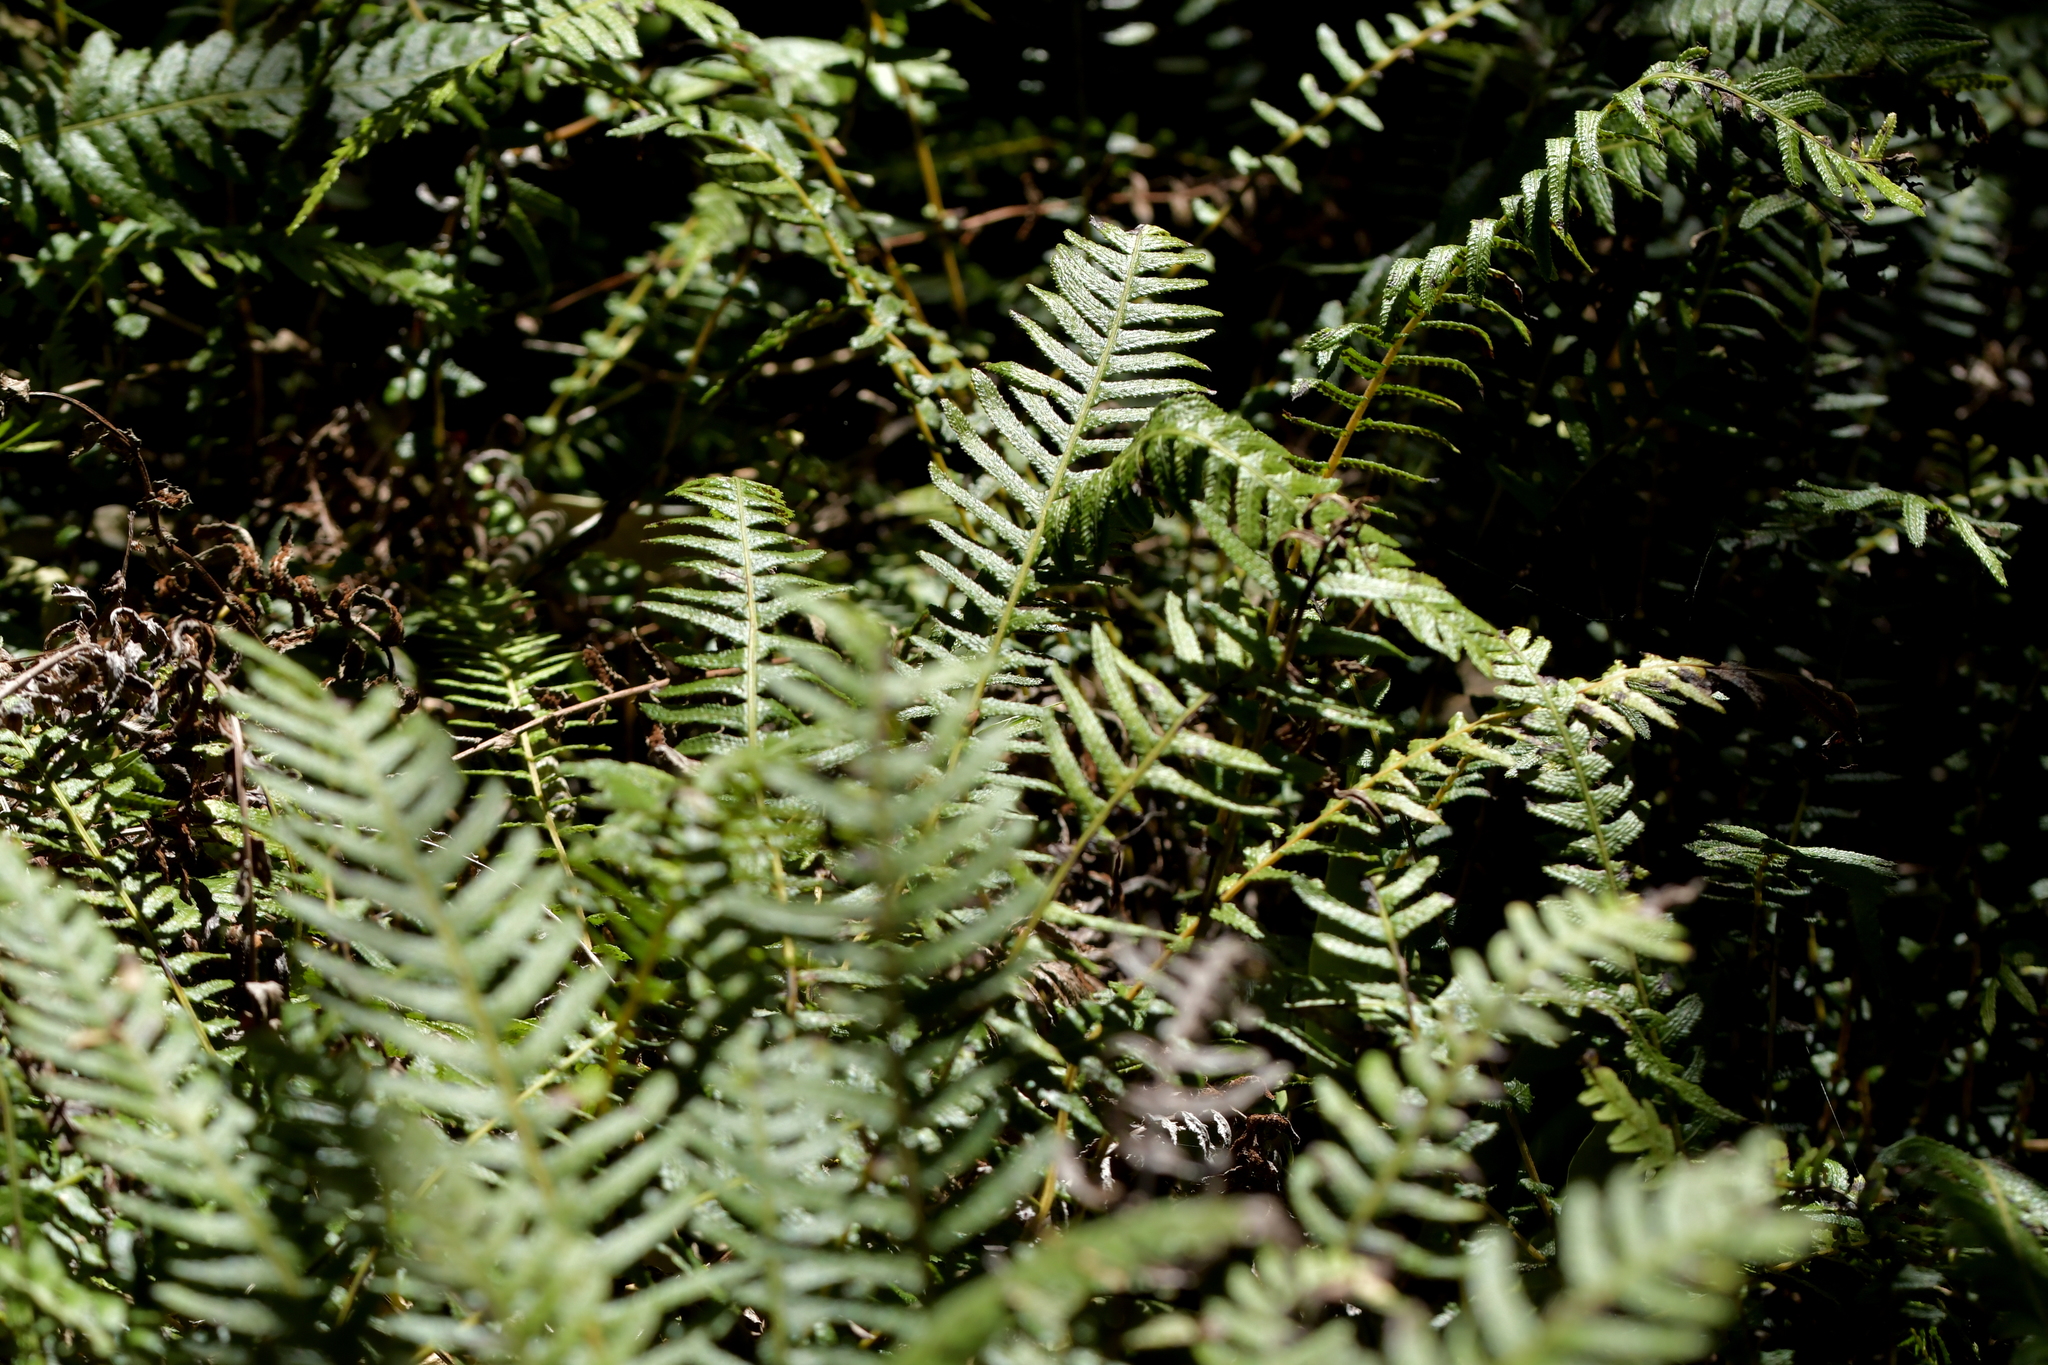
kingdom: Plantae
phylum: Tracheophyta
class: Polypodiopsida
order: Polypodiales
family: Blechnaceae
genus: Doodia
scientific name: Doodia australis
